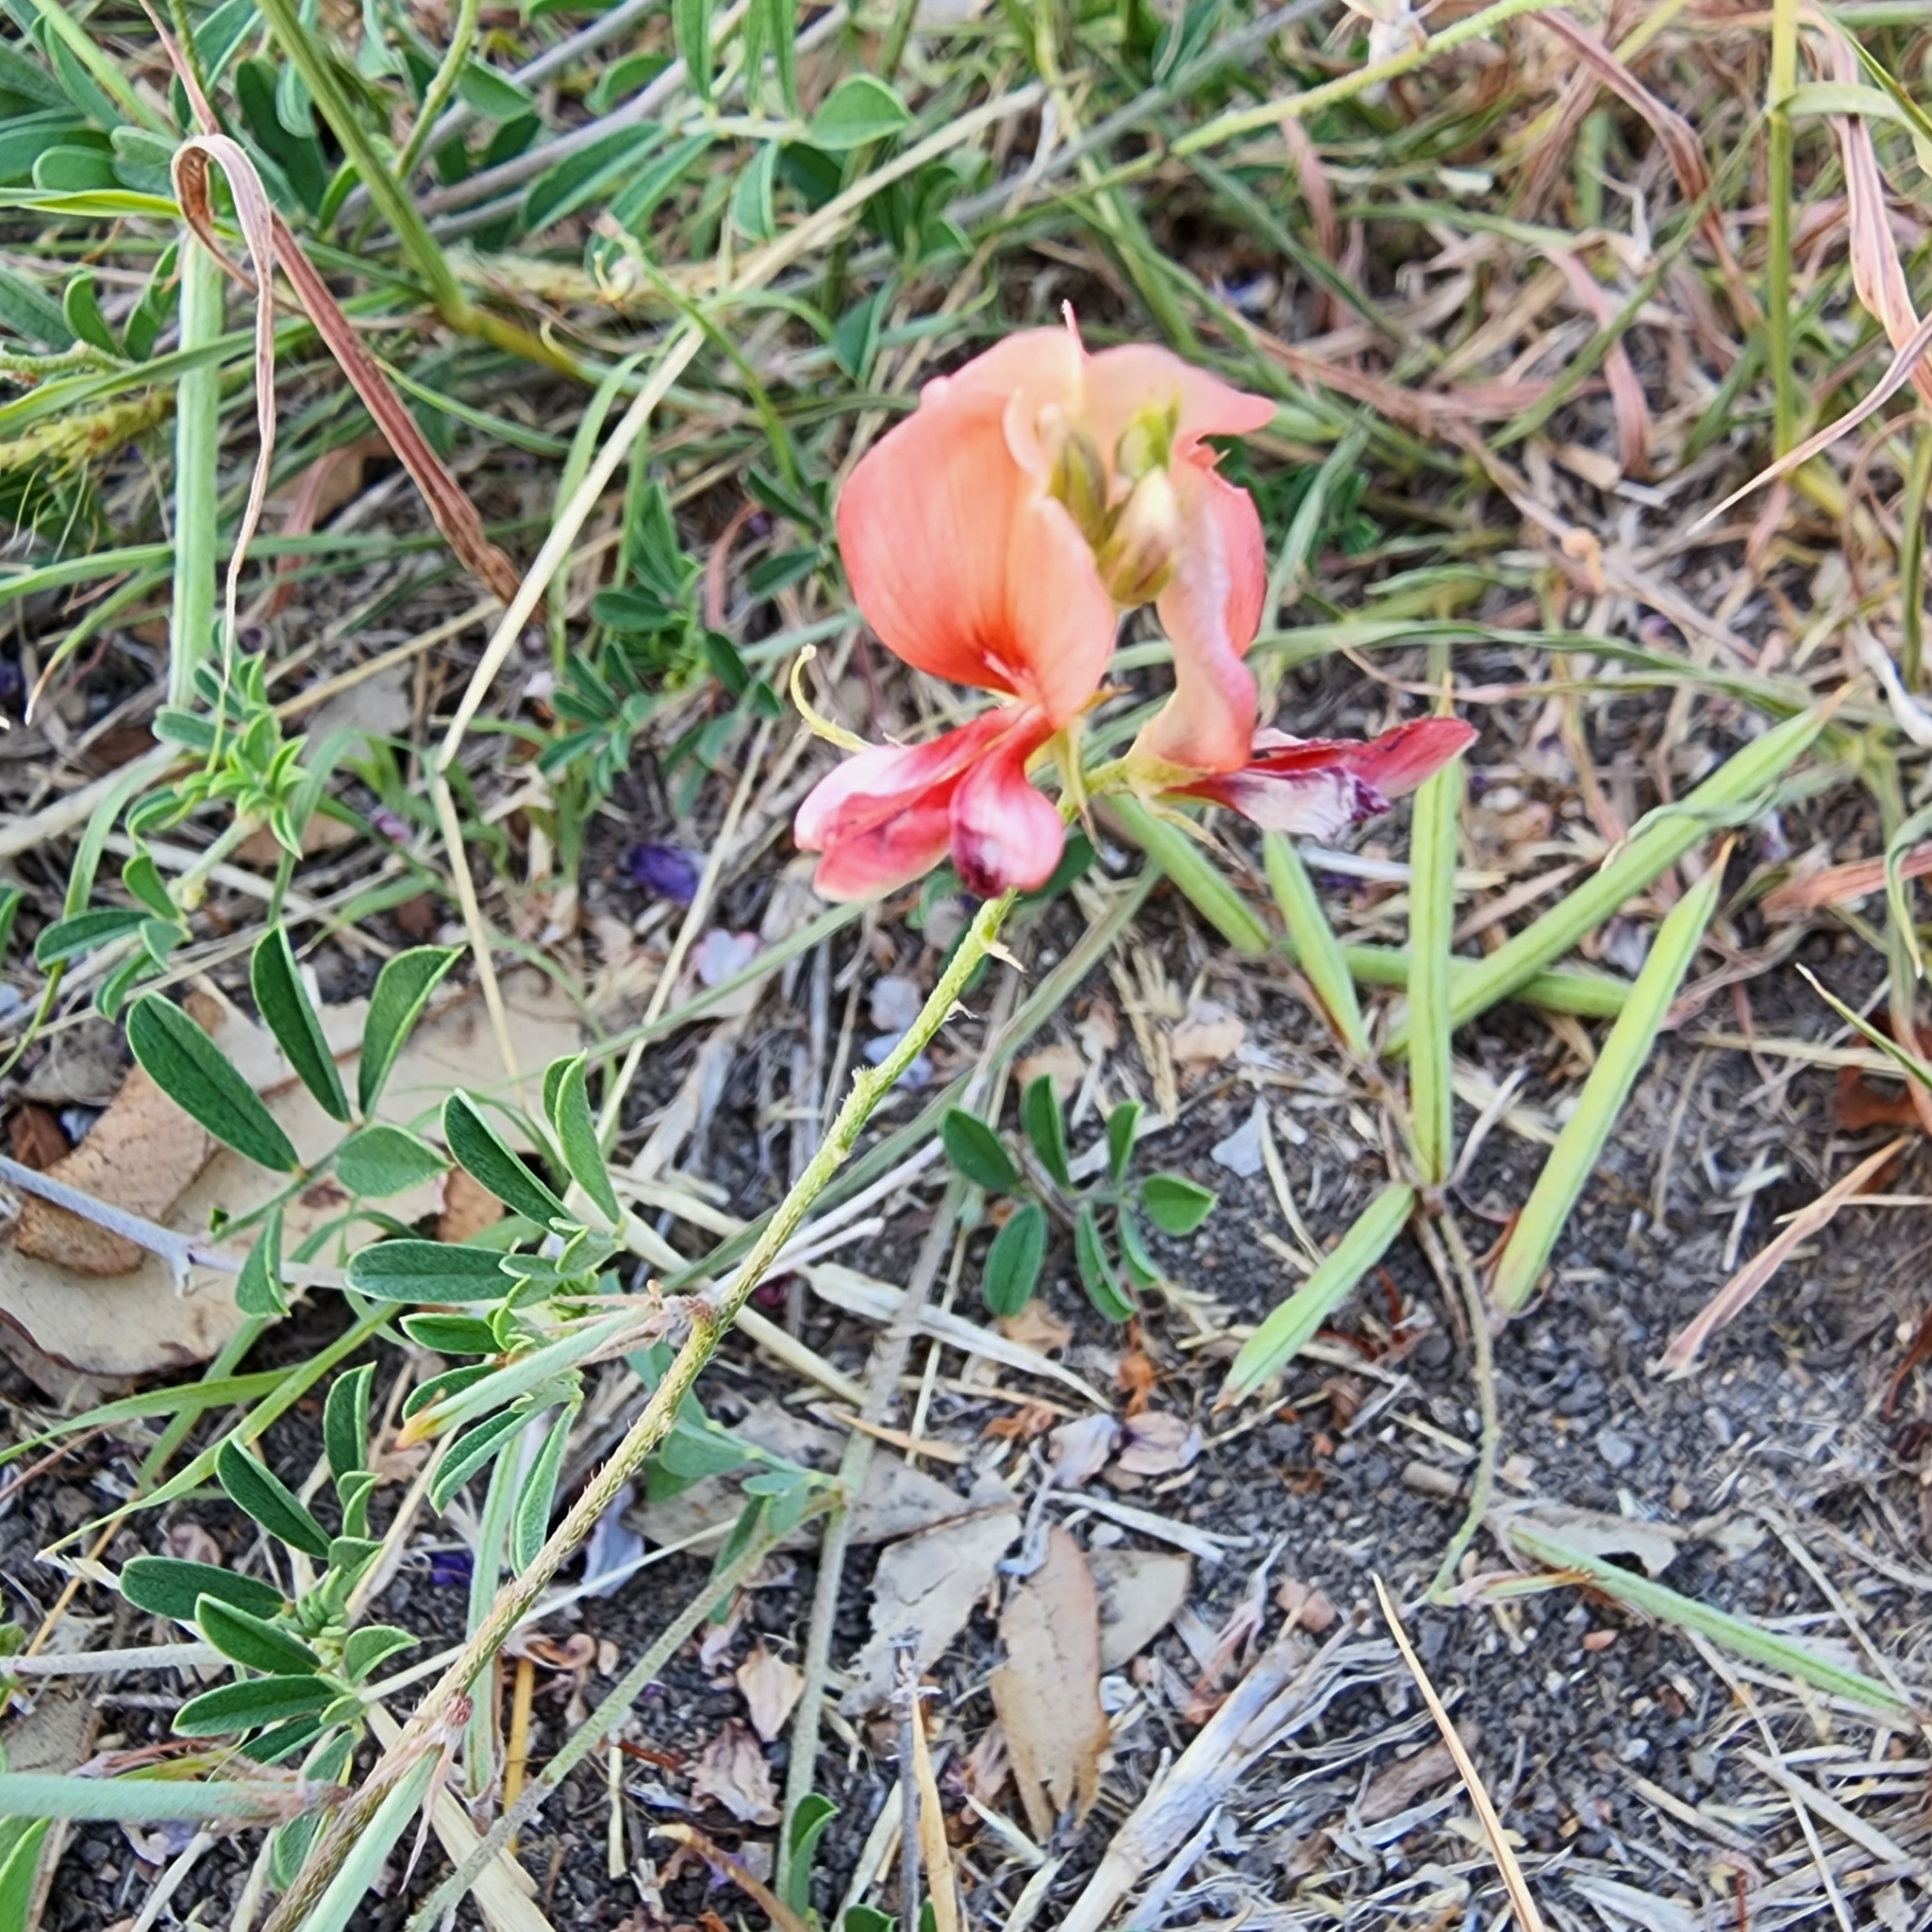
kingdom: Plantae
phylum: Tracheophyta
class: Magnoliopsida
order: Fabales
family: Fabaceae
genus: Indigofera
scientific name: Indigofera miniata
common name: Coast indigo
